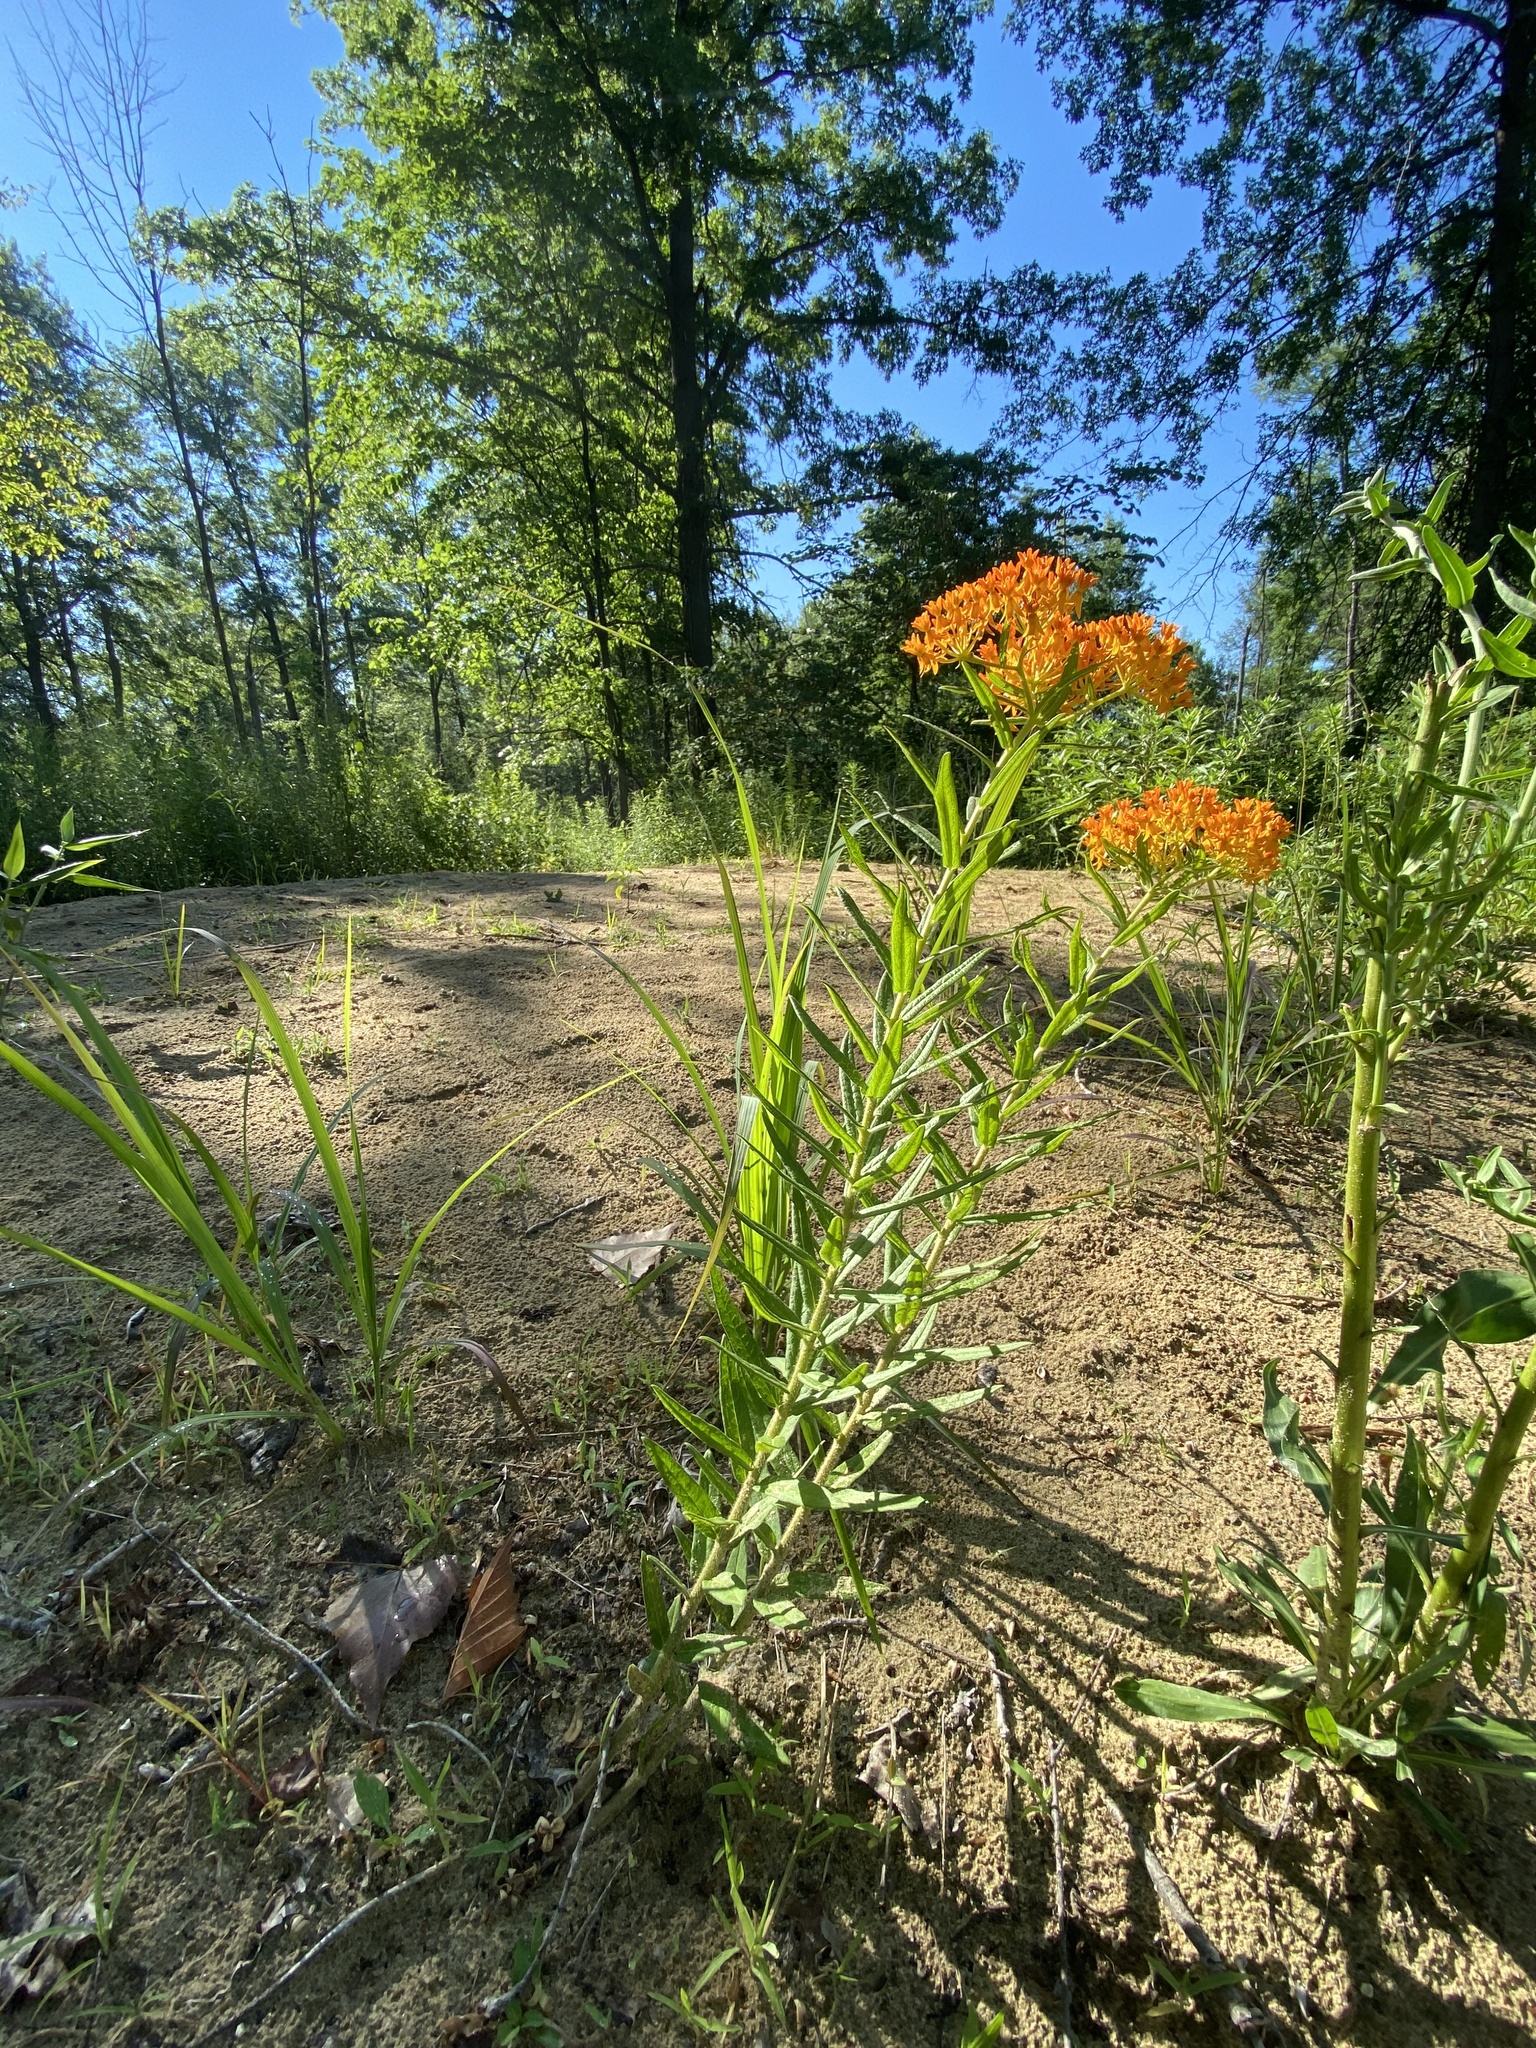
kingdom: Plantae
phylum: Tracheophyta
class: Magnoliopsida
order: Gentianales
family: Apocynaceae
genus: Asclepias
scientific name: Asclepias tuberosa
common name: Butterfly milkweed
